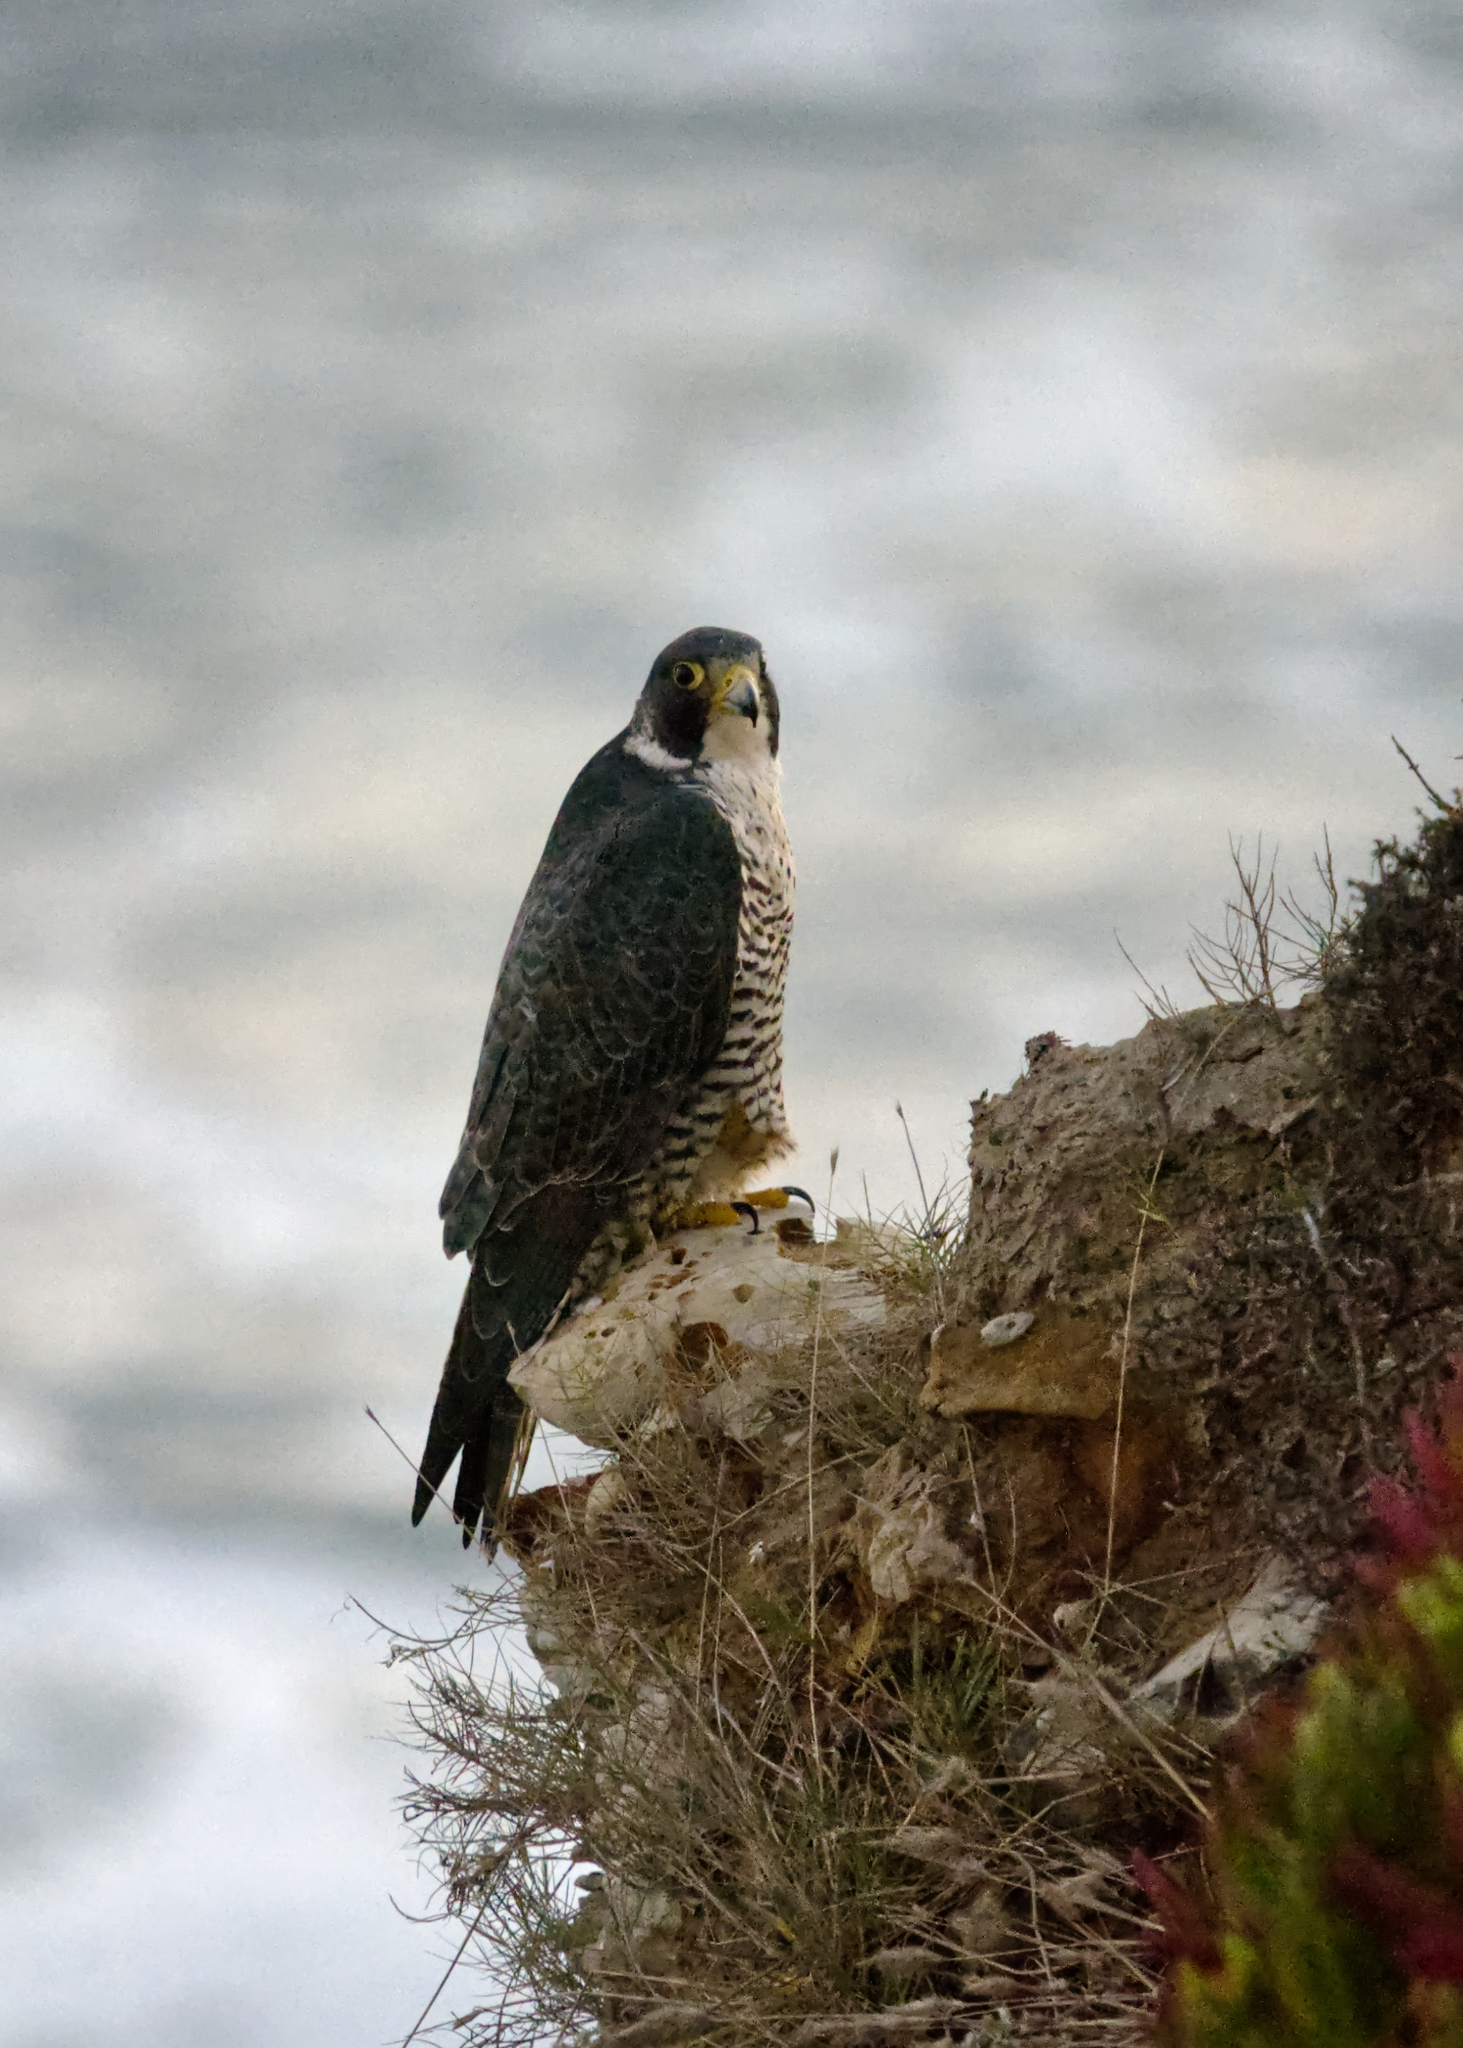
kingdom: Animalia
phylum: Chordata
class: Aves
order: Falconiformes
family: Falconidae
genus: Falco
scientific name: Falco peregrinus
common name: Peregrine falcon
